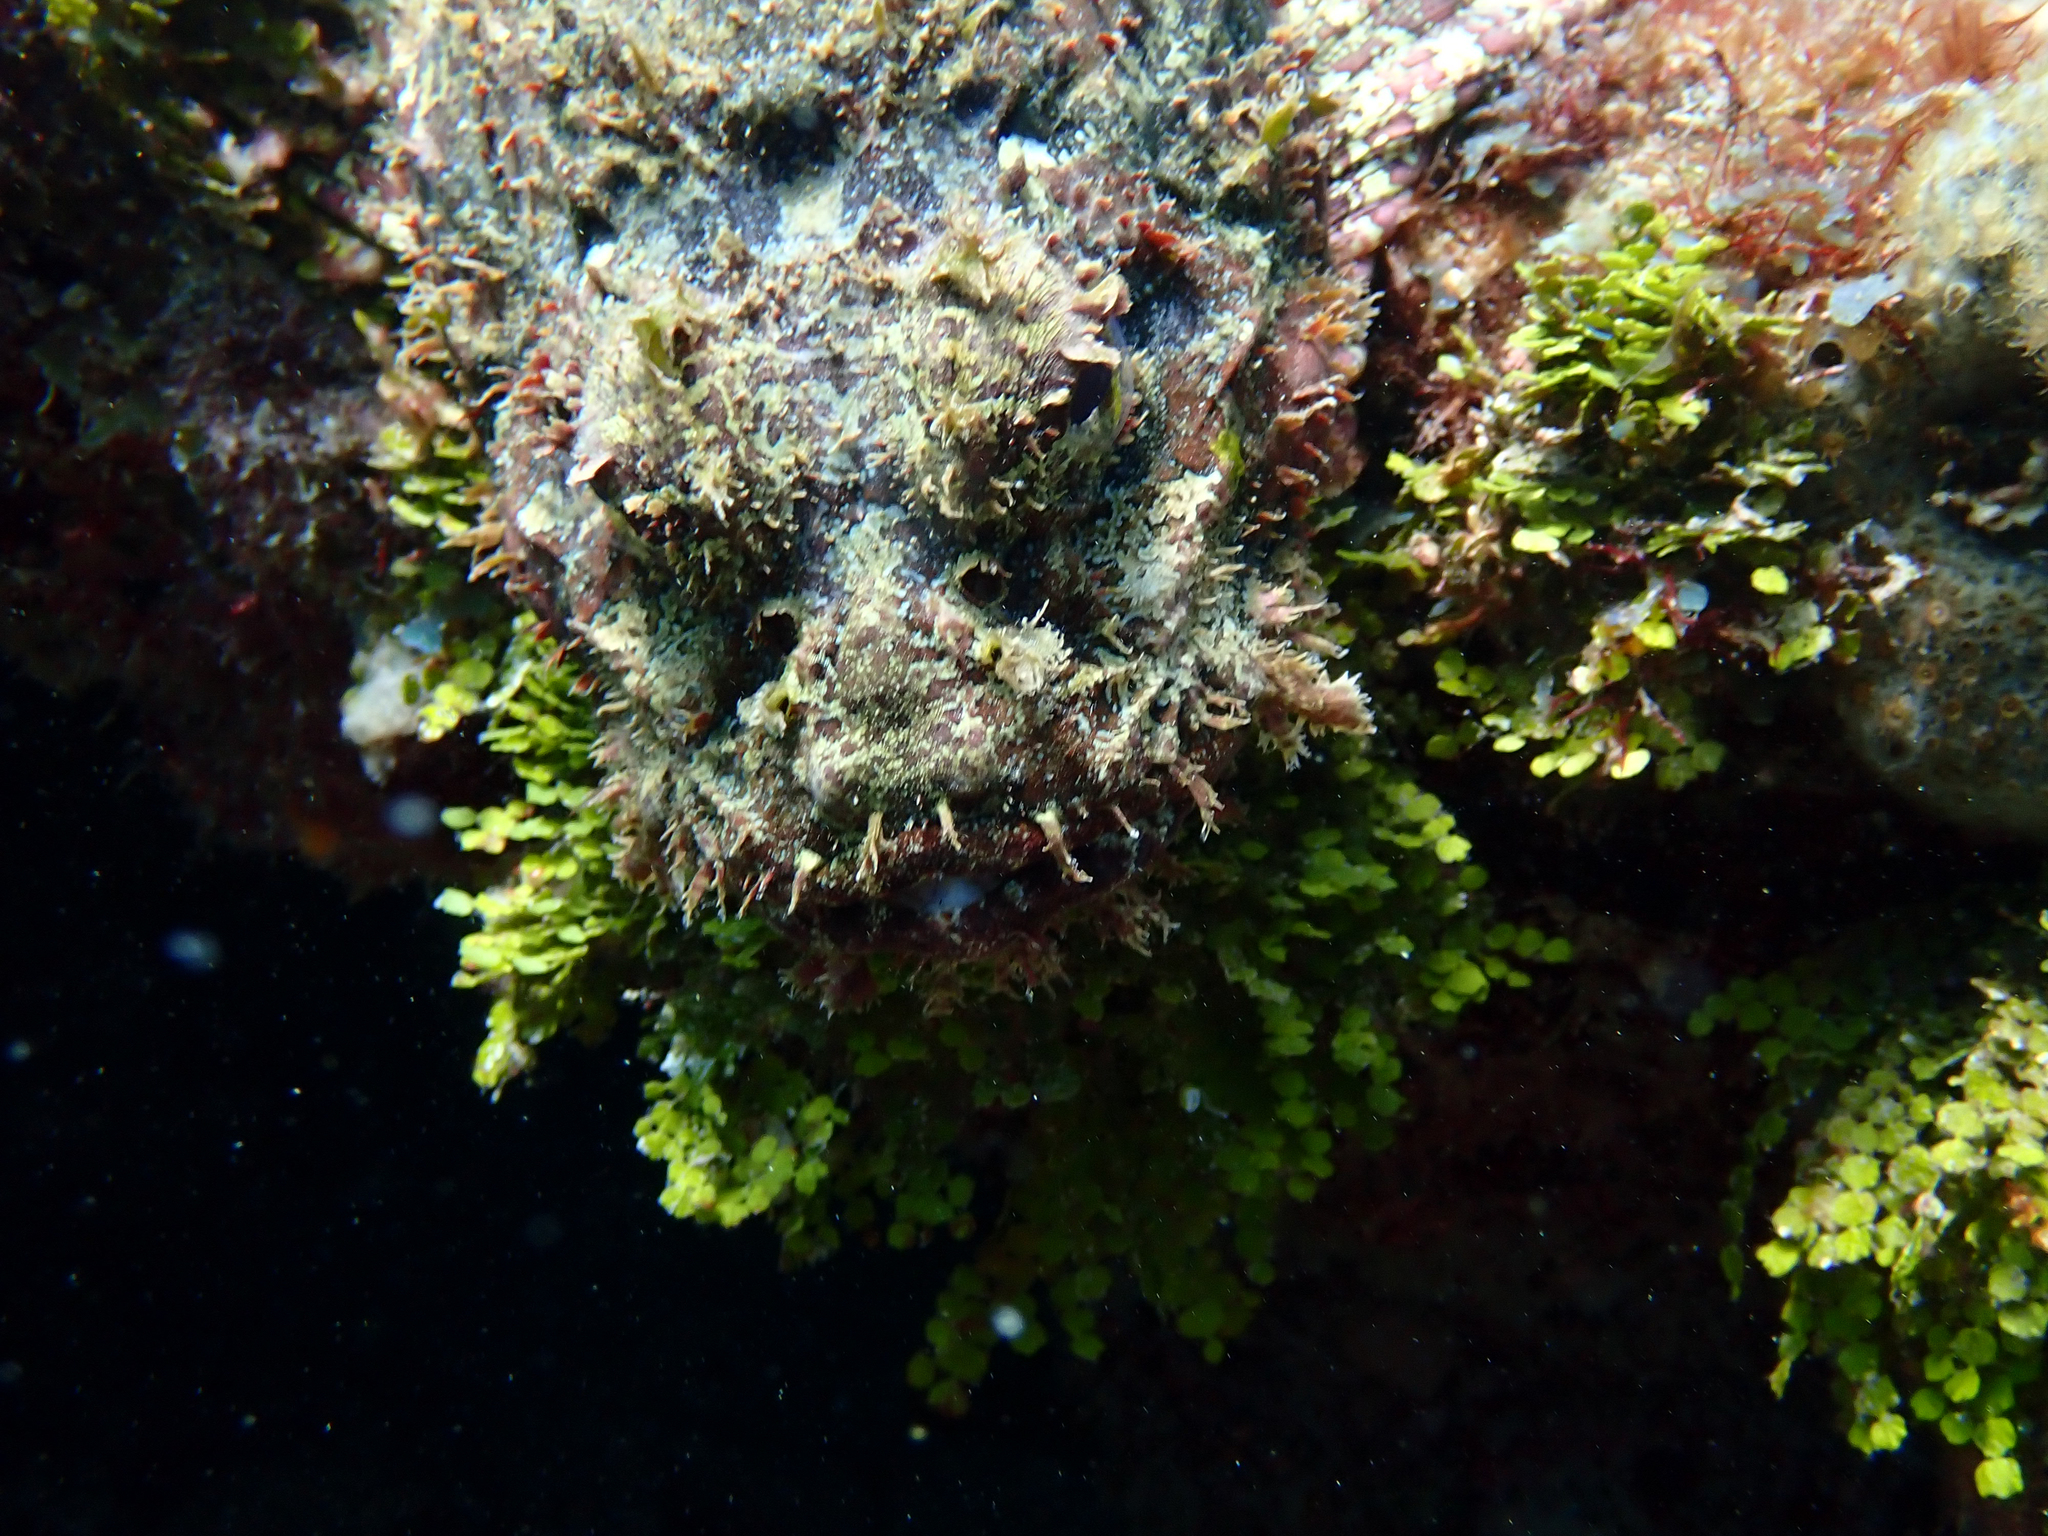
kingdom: Animalia
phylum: Chordata
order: Scorpaeniformes
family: Scorpaenidae
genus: Scorpaena
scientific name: Scorpaena plumieri
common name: Spotted scorpionfish
